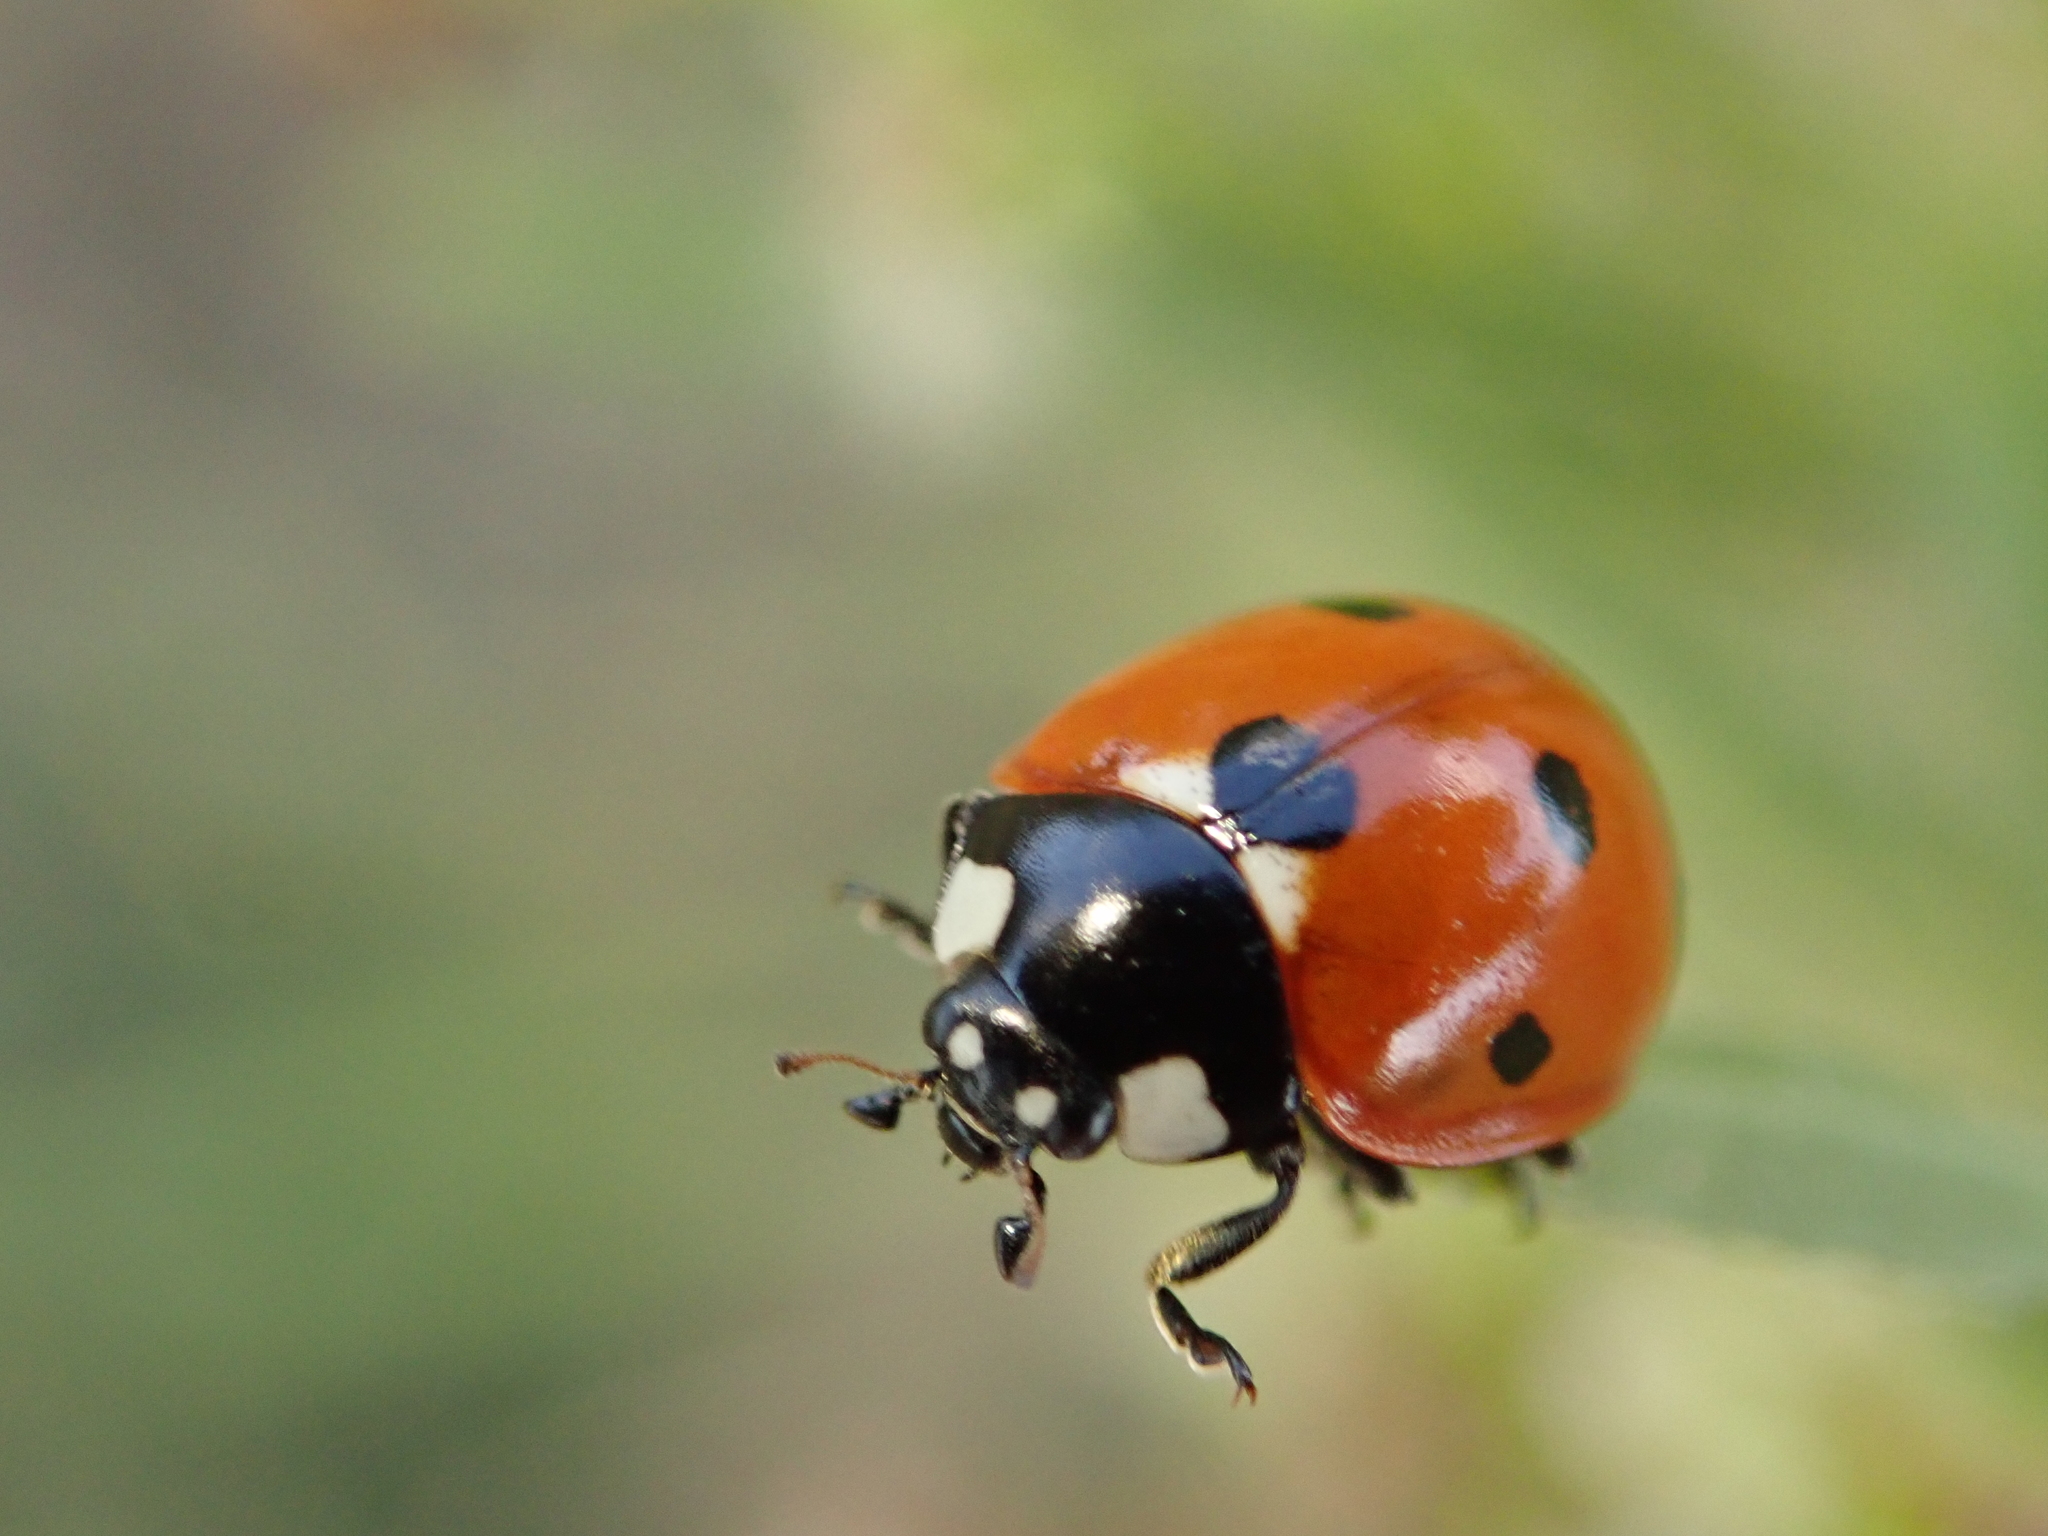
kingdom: Animalia
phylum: Arthropoda
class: Insecta
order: Coleoptera
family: Coccinellidae
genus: Coccinella
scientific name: Coccinella septempunctata
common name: Sevenspotted lady beetle
